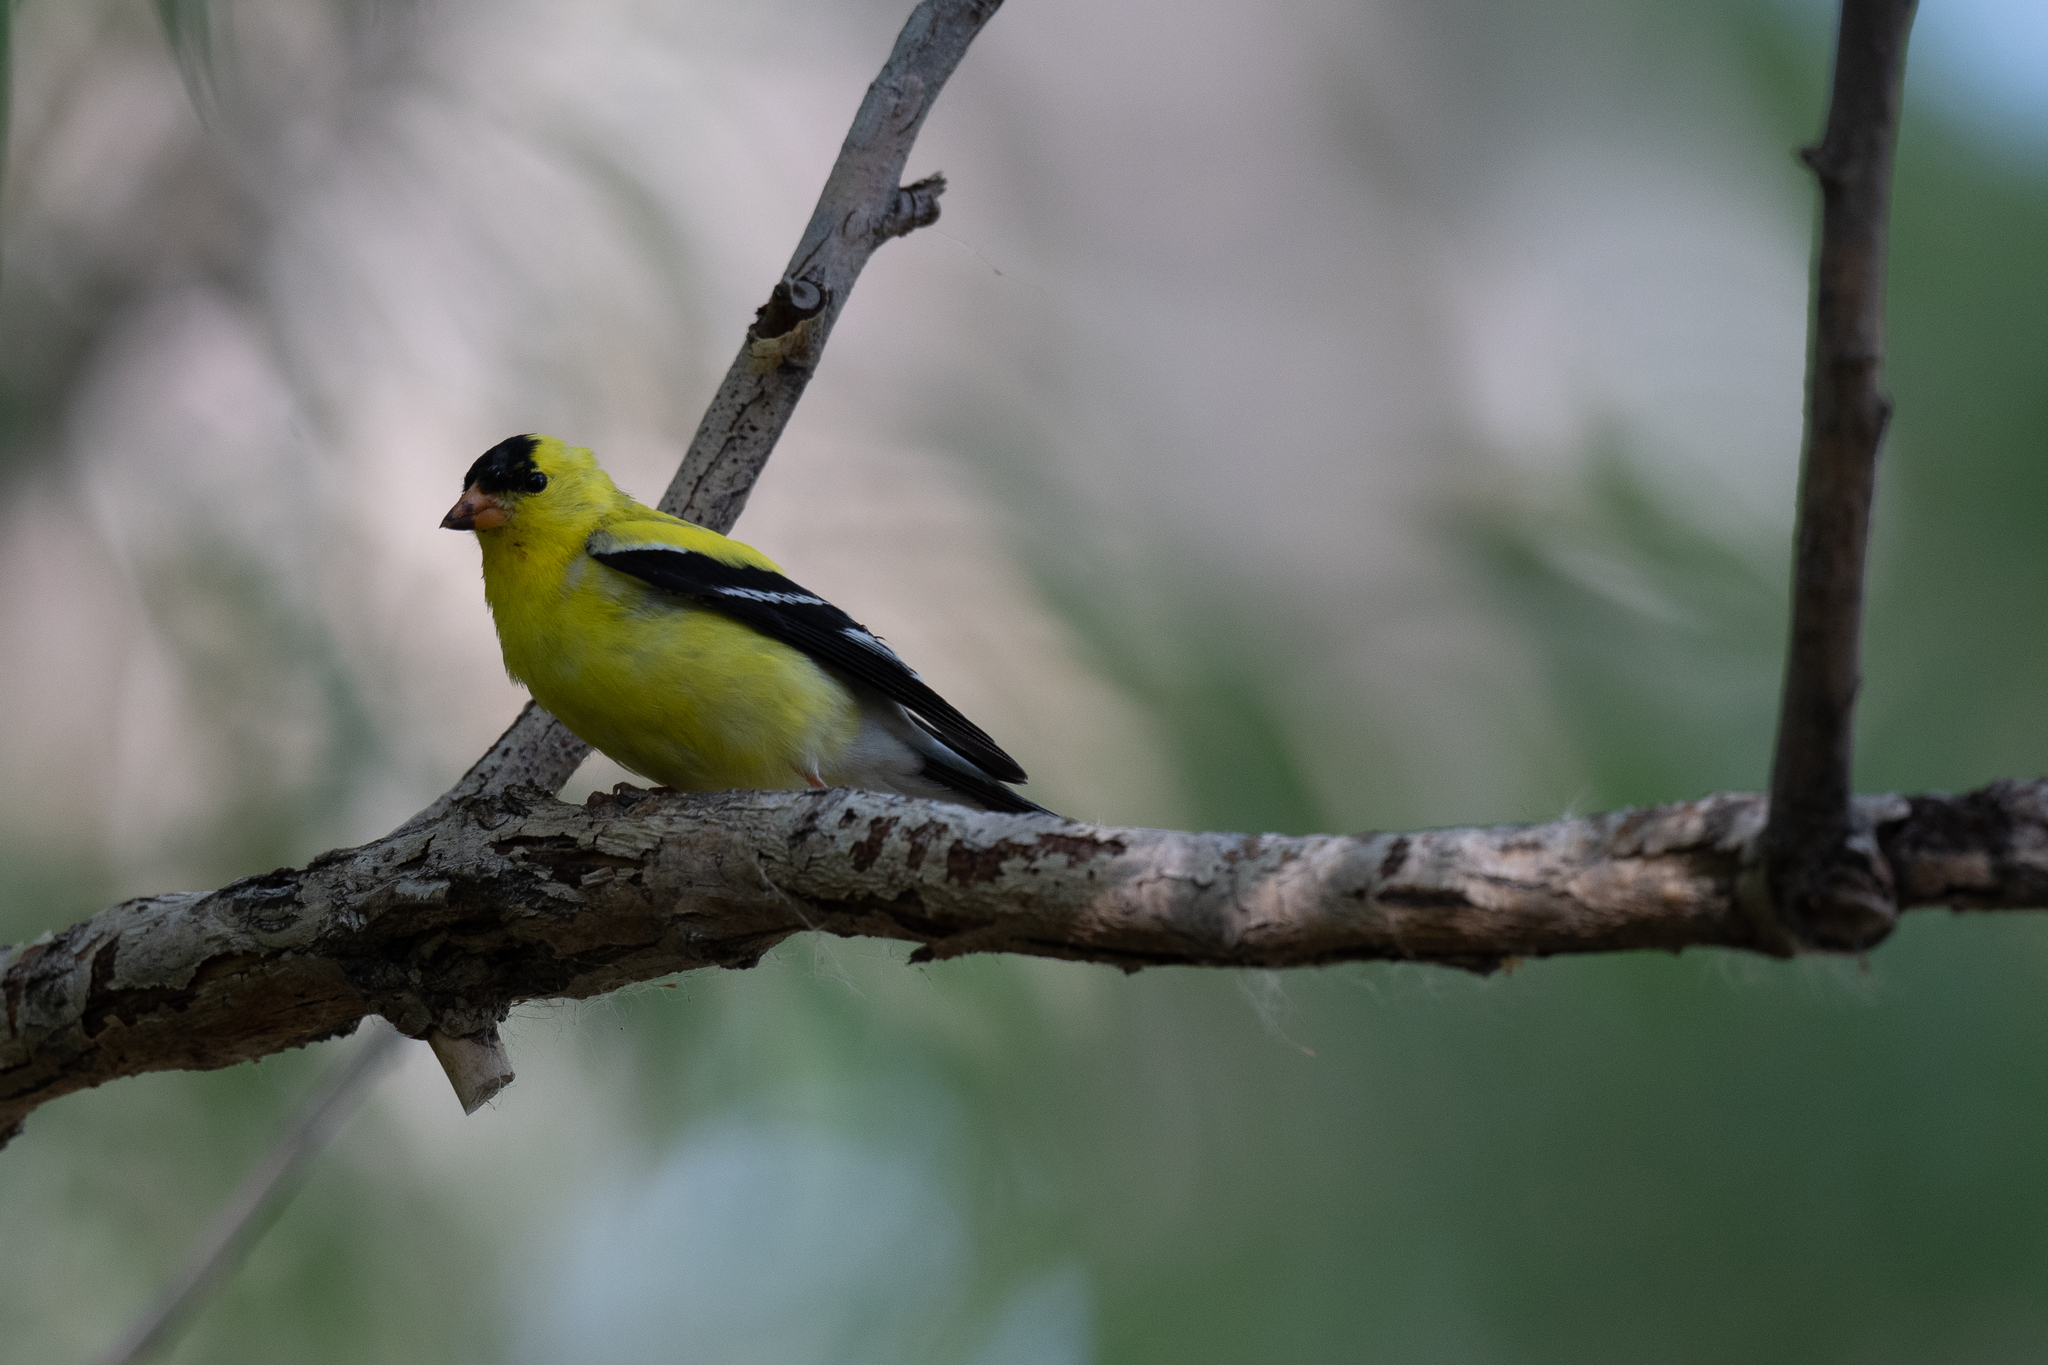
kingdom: Animalia
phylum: Chordata
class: Aves
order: Passeriformes
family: Fringillidae
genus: Spinus
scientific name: Spinus tristis
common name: American goldfinch
